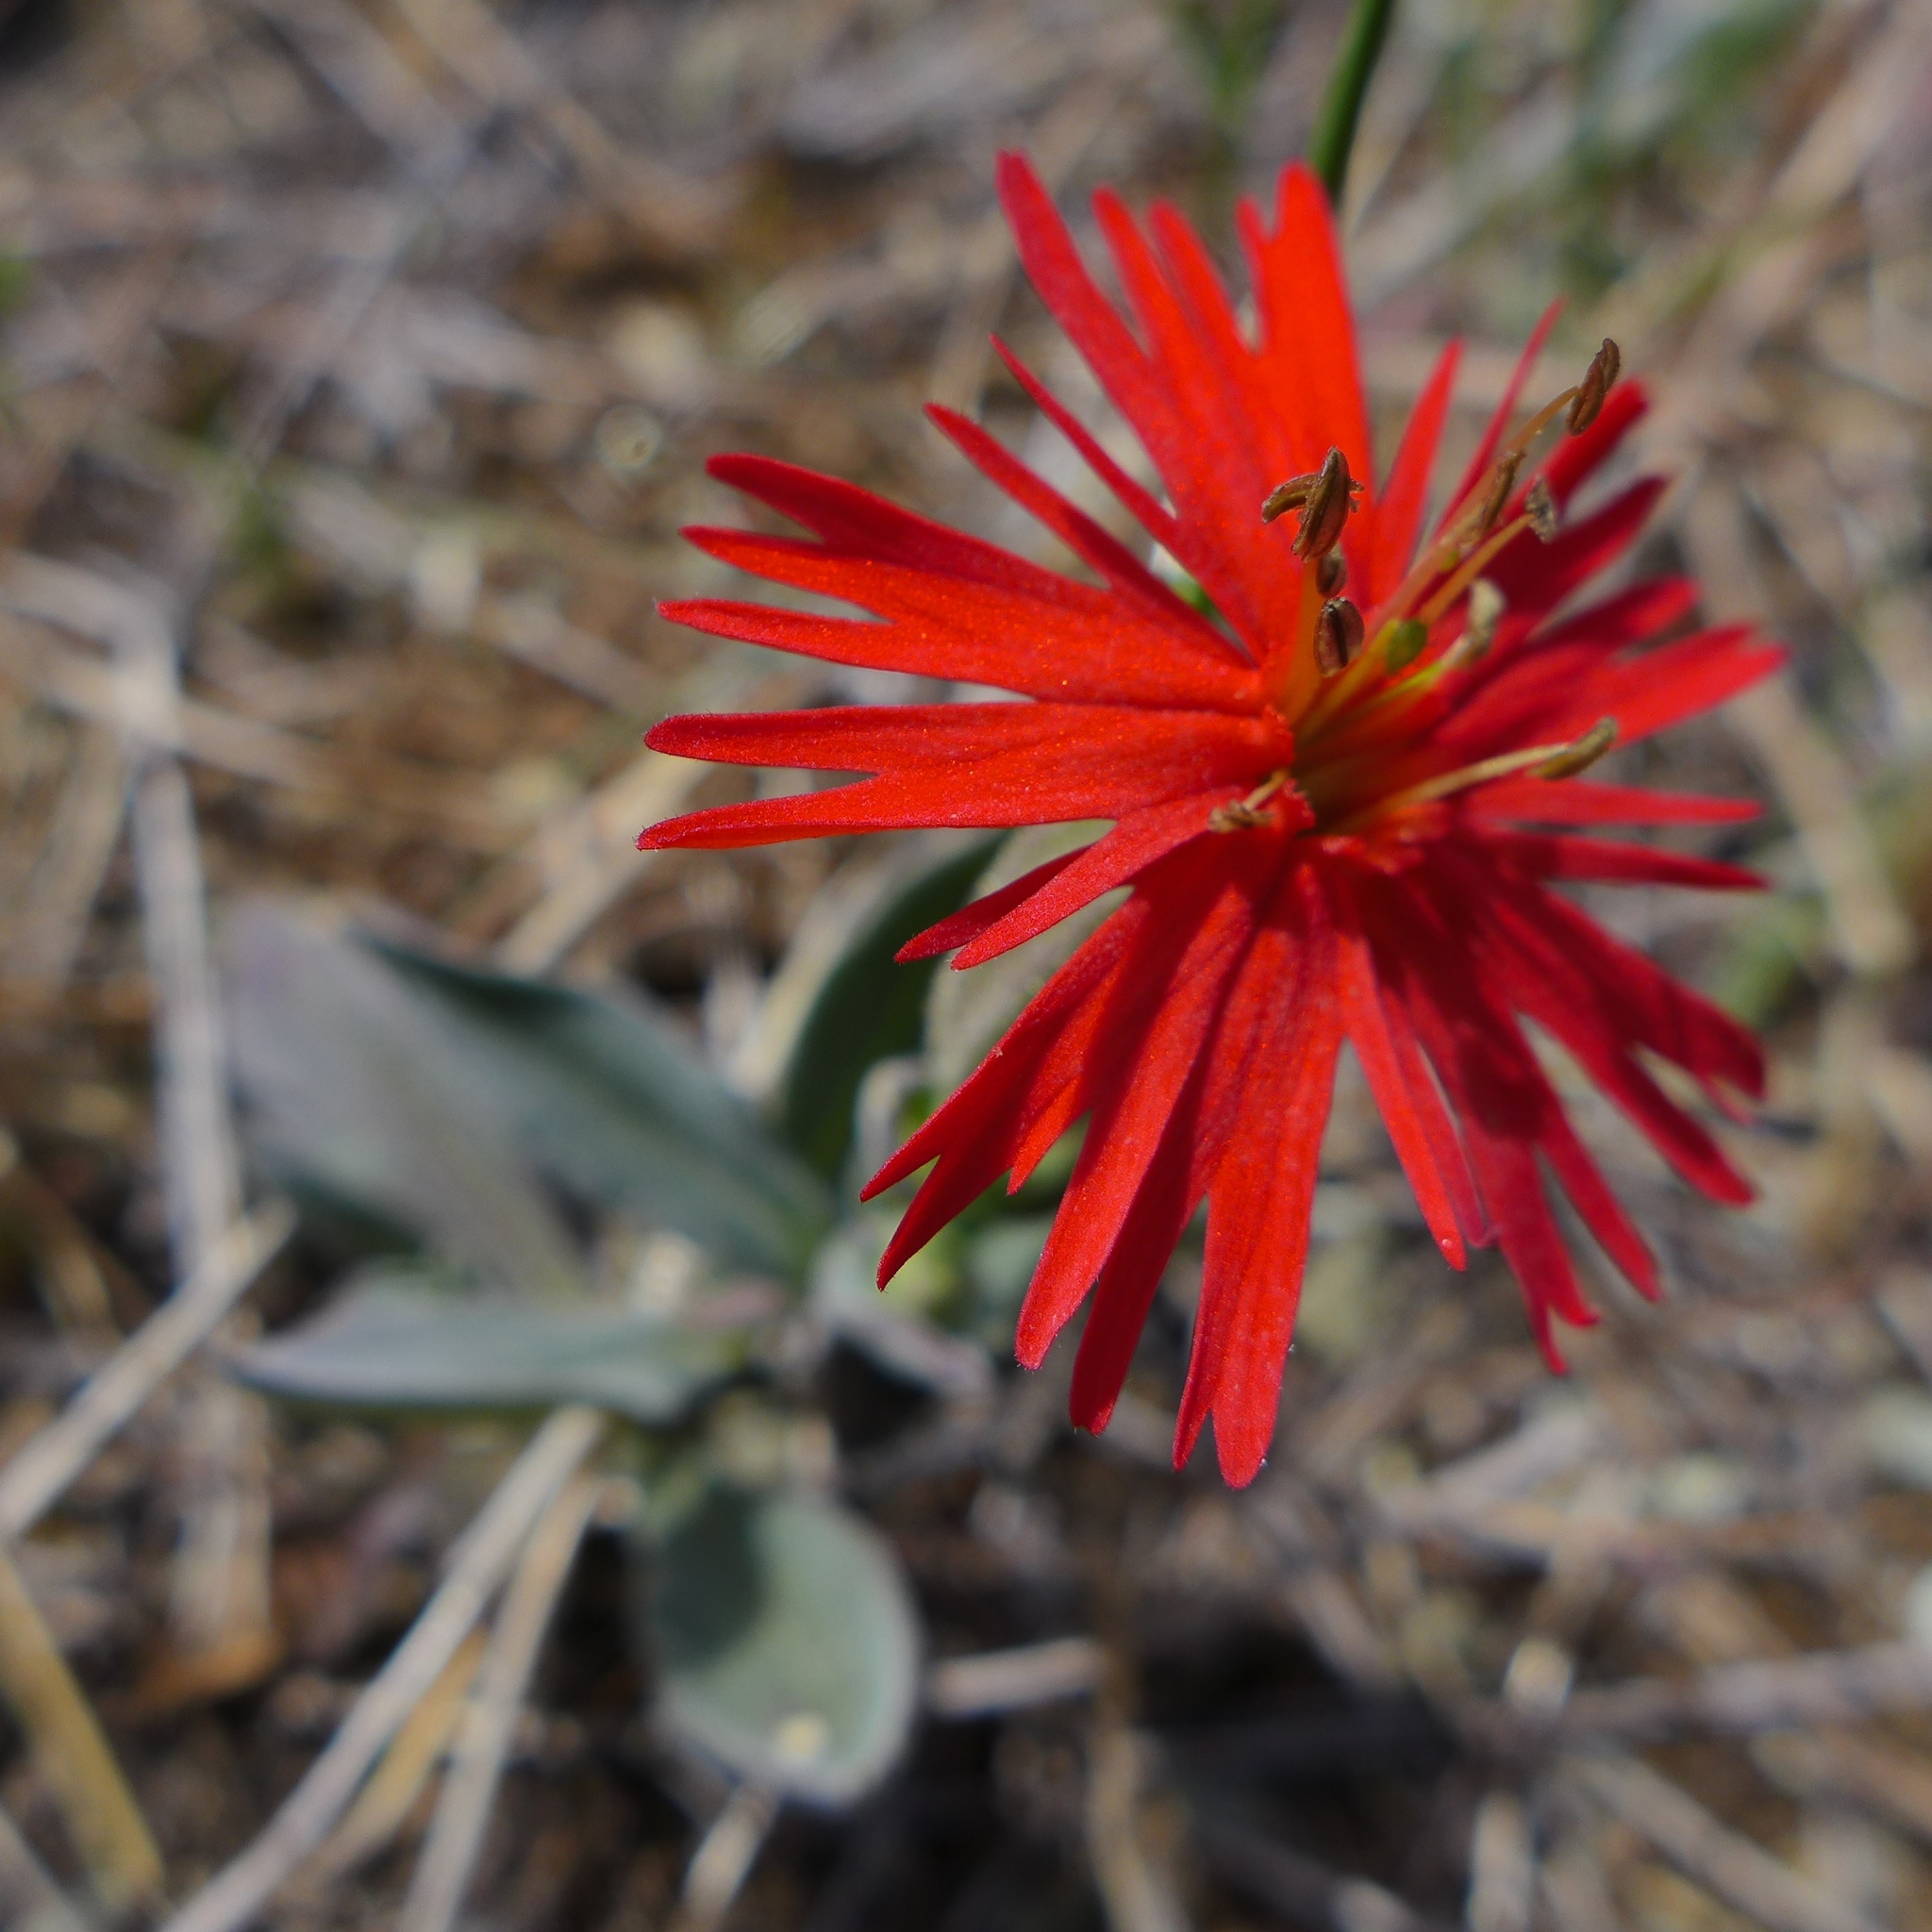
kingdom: Plantae
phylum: Tracheophyta
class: Magnoliopsida
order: Caryophyllales
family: Caryophyllaceae
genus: Silene
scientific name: Silene laciniata
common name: Indian-pink
